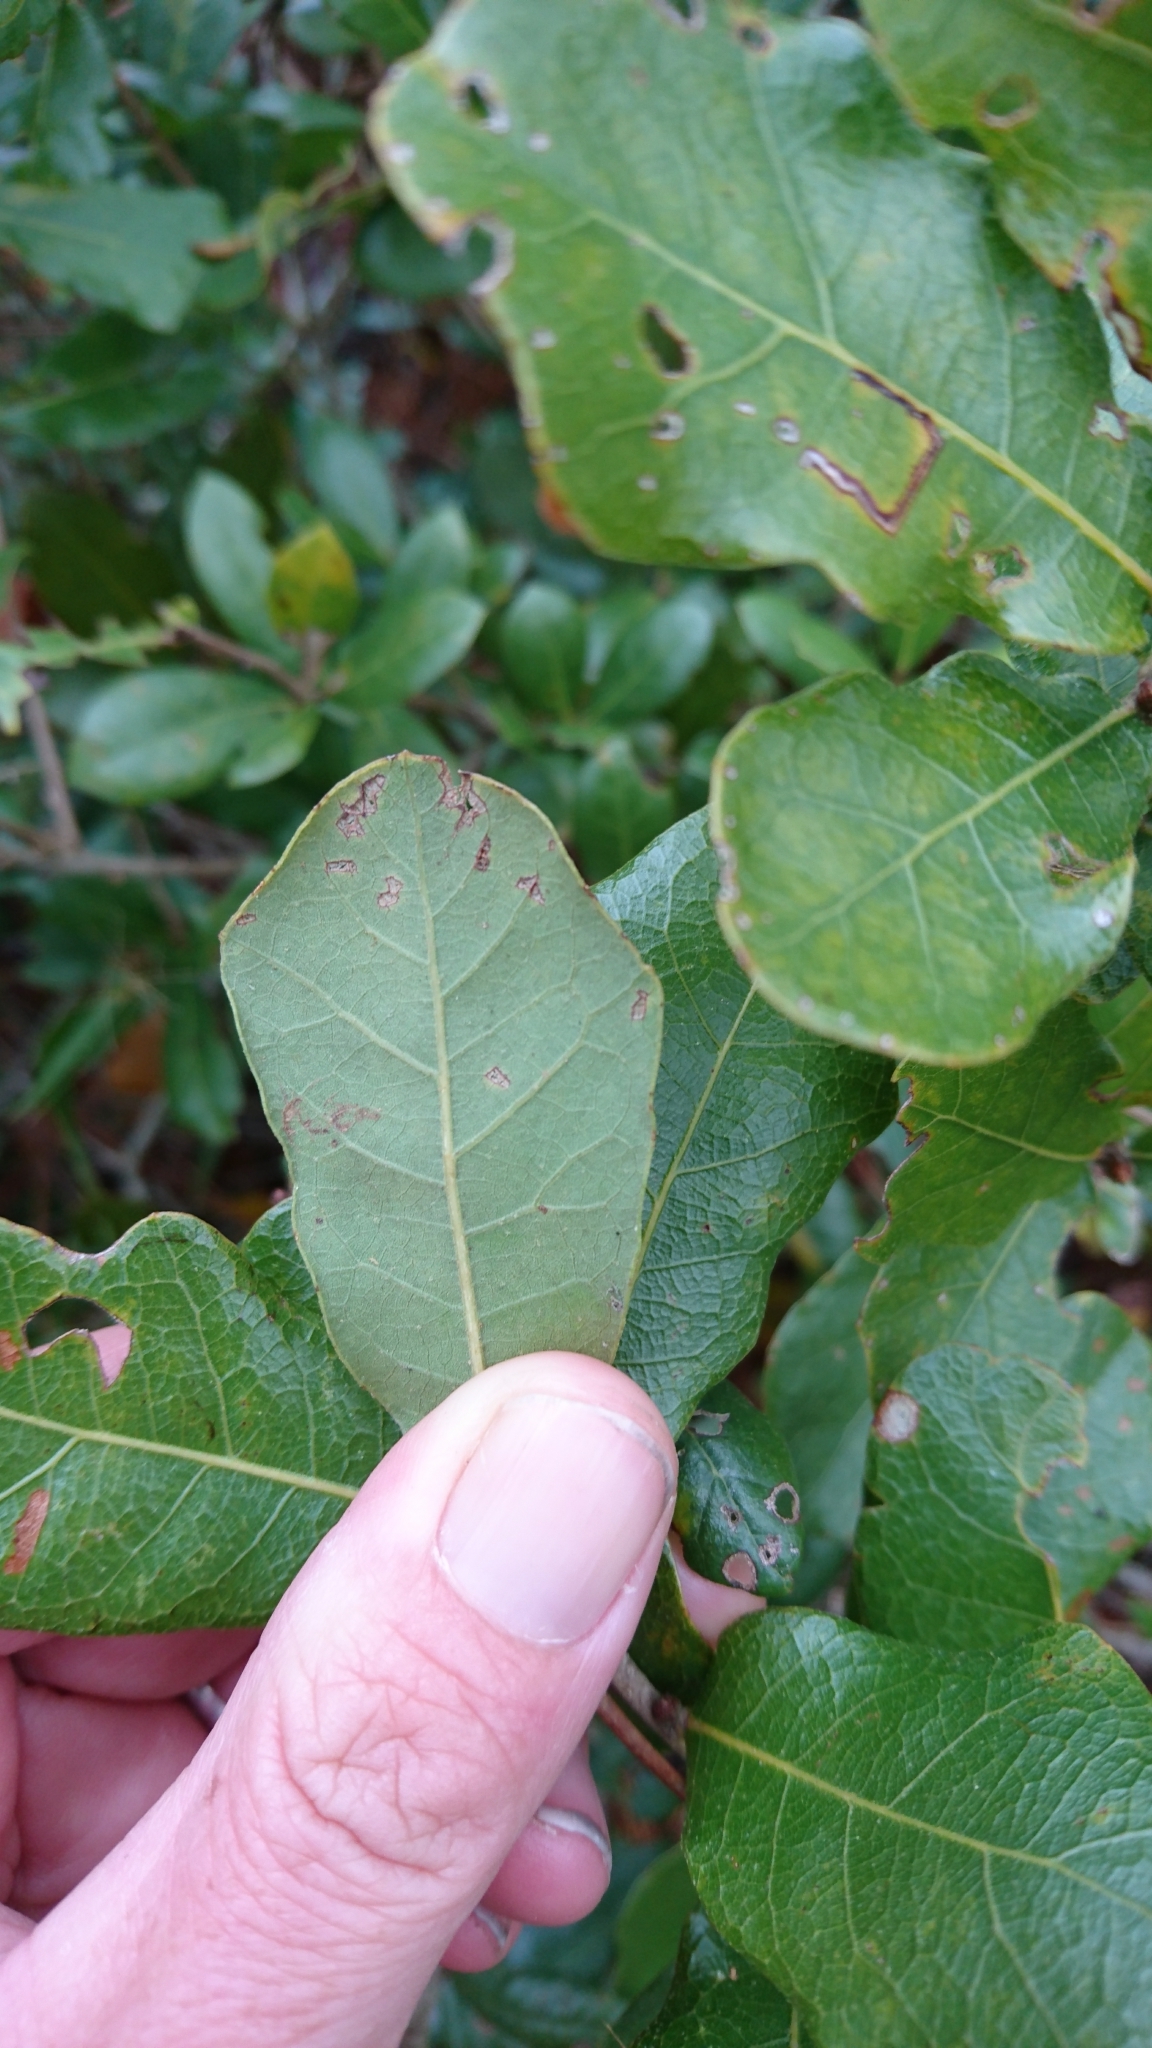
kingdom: Plantae
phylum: Tracheophyta
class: Magnoliopsida
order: Fagales
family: Fagaceae
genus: Quercus
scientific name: Quercus chapmanii
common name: Chapman oak
